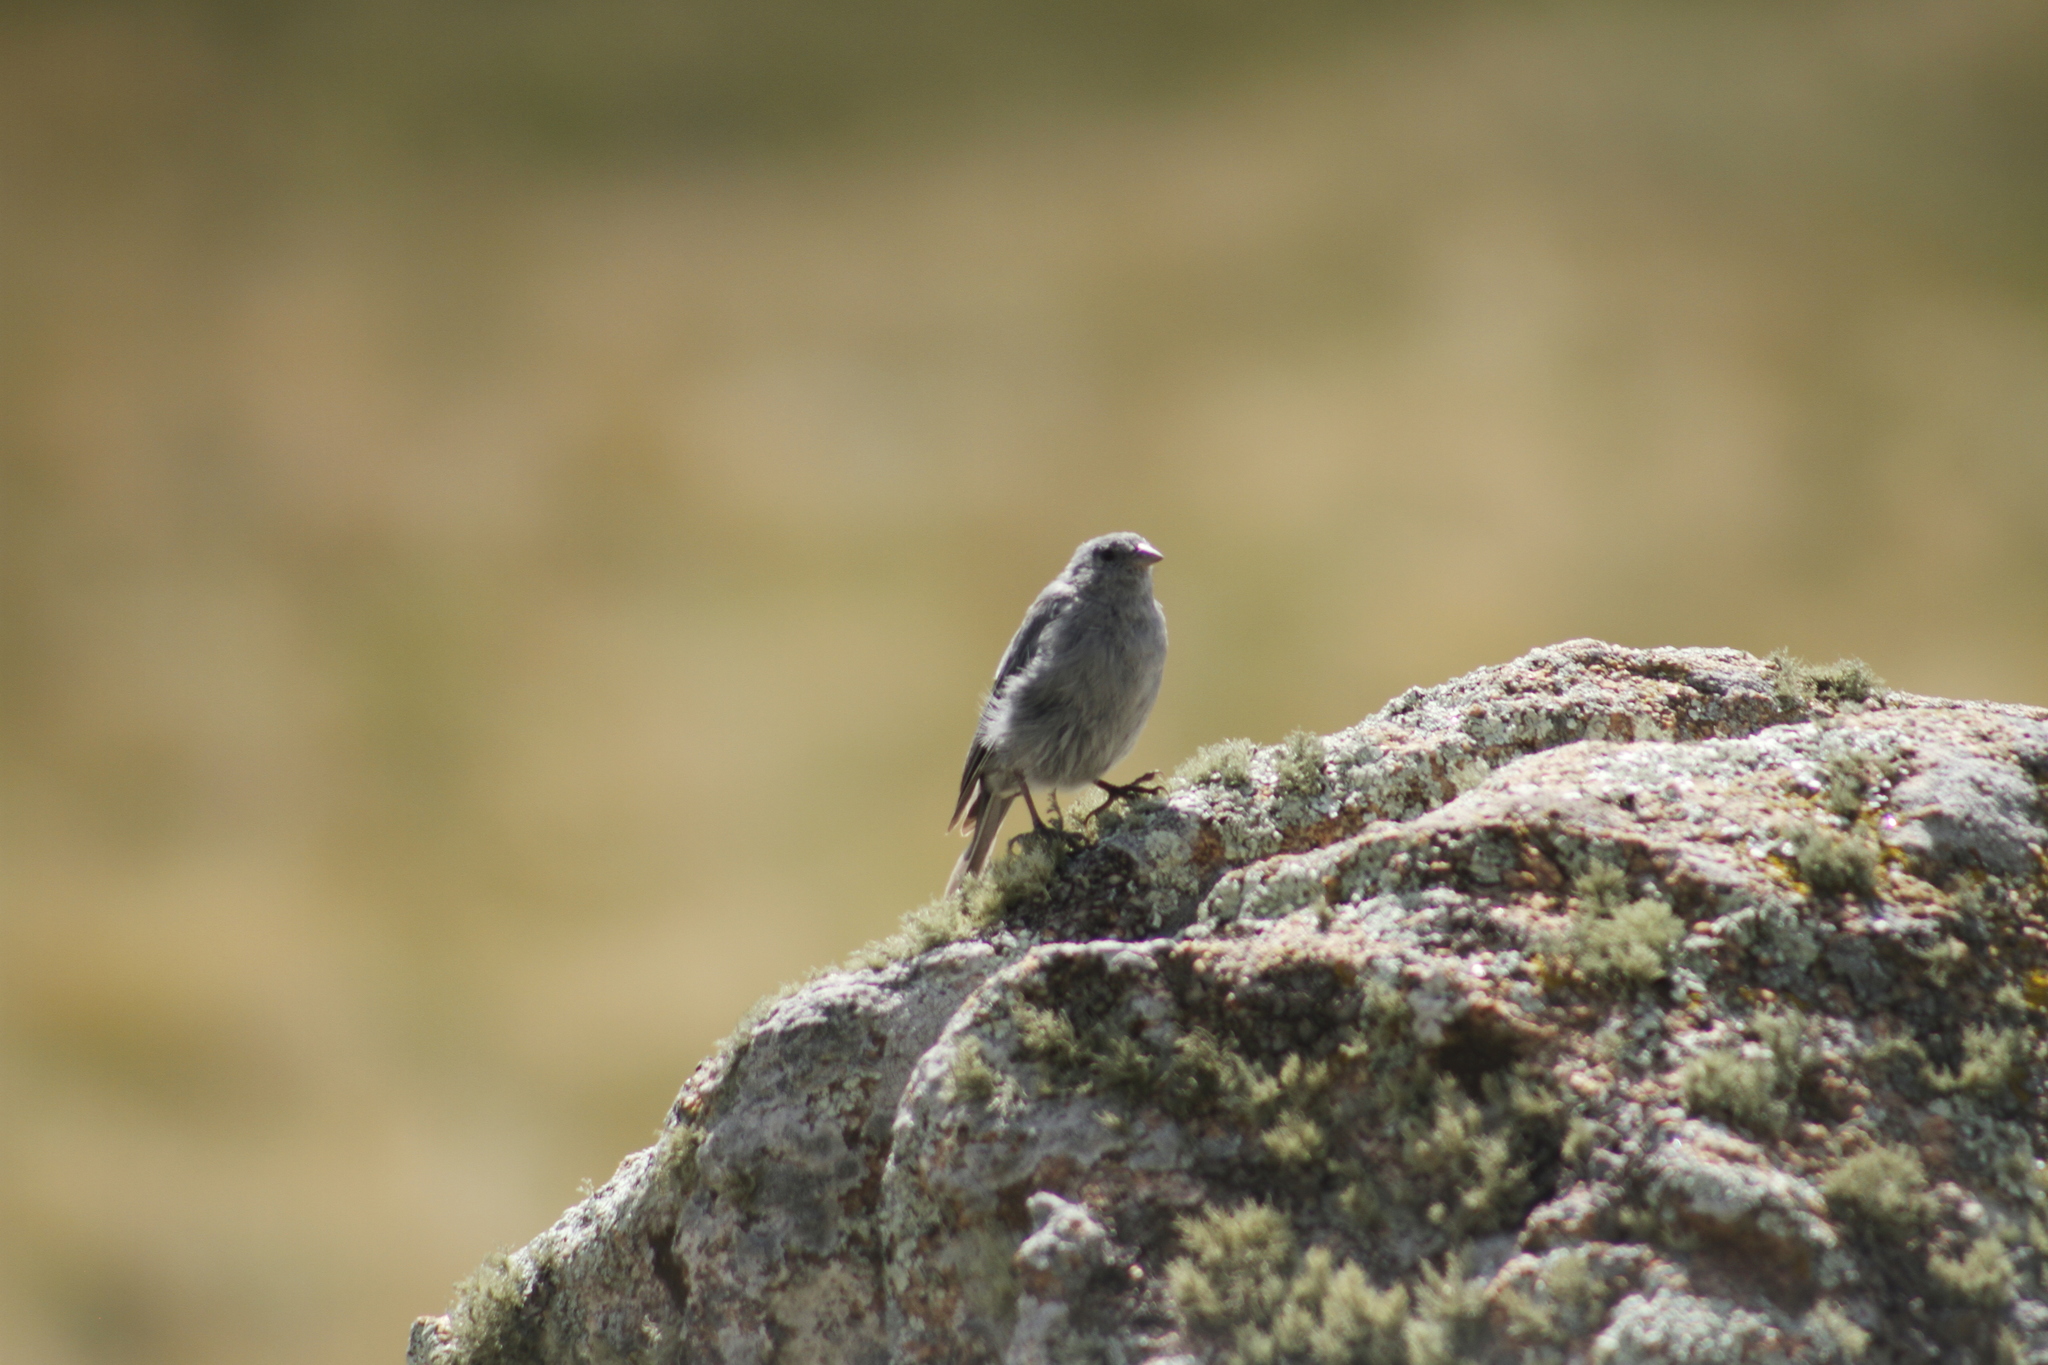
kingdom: Animalia
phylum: Chordata
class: Aves
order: Passeriformes
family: Thraupidae
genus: Geospizopsis
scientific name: Geospizopsis unicolor
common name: Plumbeous sierra-finch
